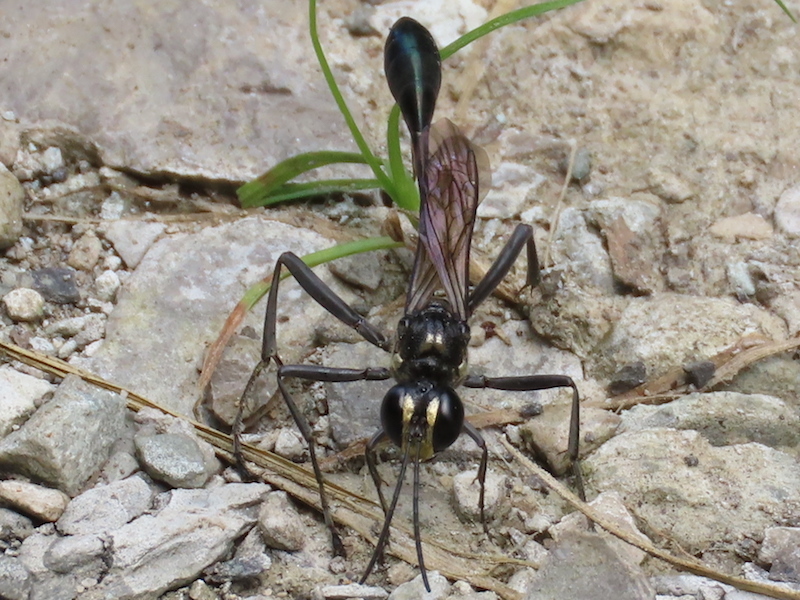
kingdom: Animalia
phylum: Arthropoda
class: Insecta
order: Hymenoptera
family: Sphecidae
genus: Eremnophila
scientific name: Eremnophila aureonotata
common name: Gold-marked thread-waisted wasp
